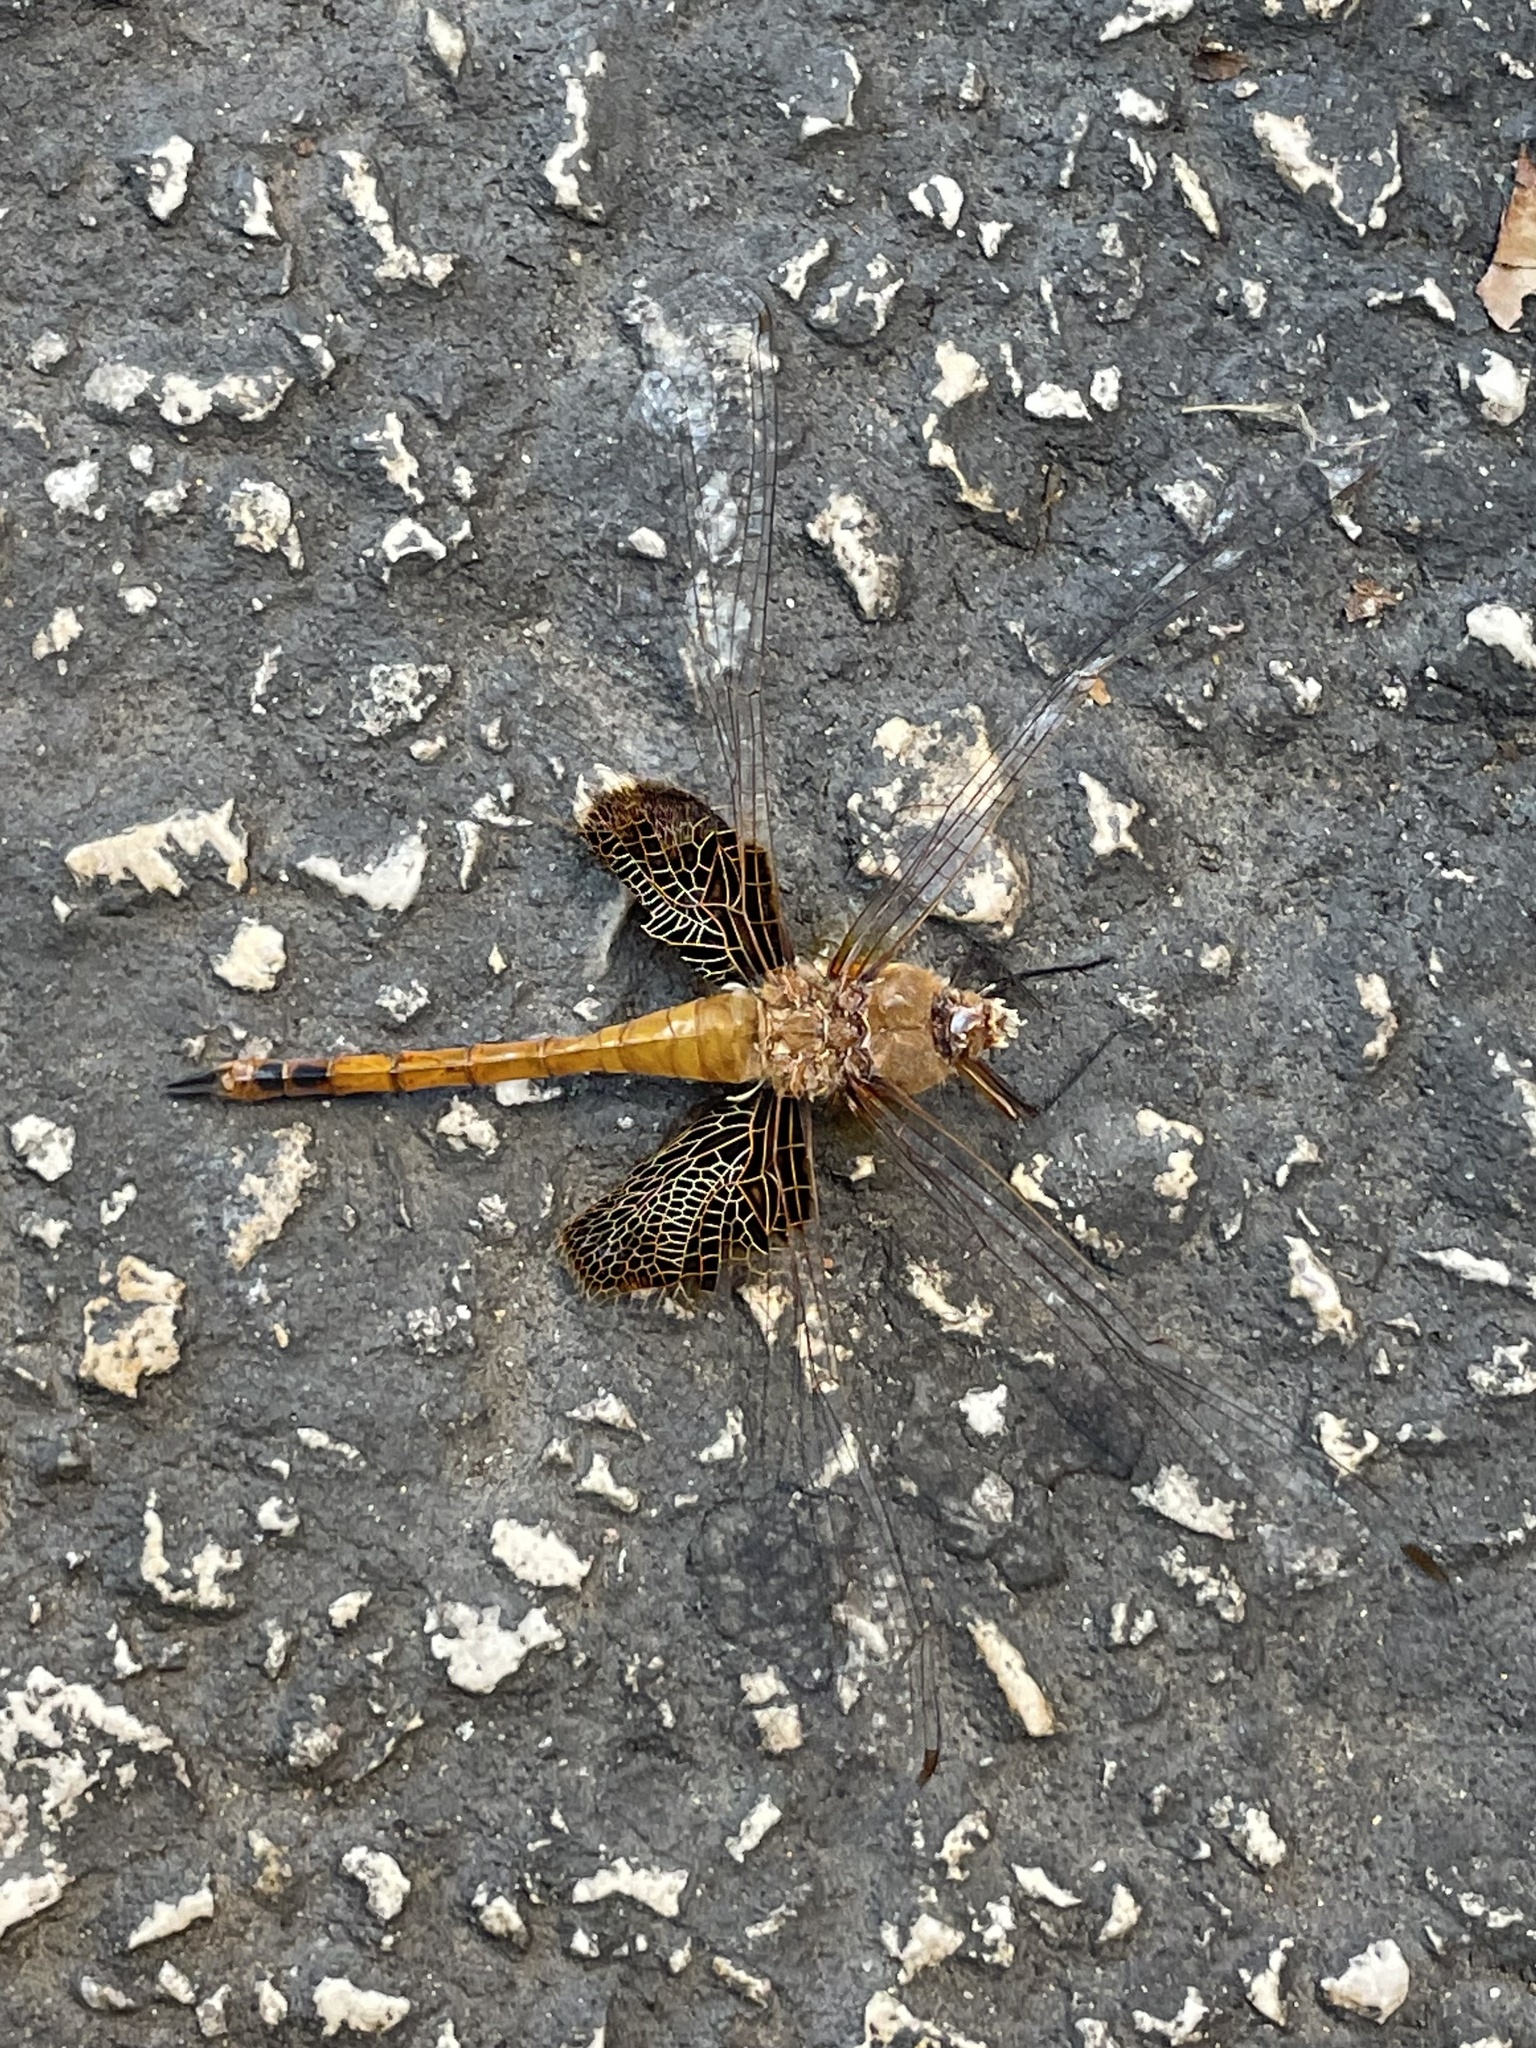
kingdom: Animalia
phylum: Arthropoda
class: Insecta
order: Odonata
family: Libellulidae
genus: Tramea
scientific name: Tramea onusta
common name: Red saddlebags
